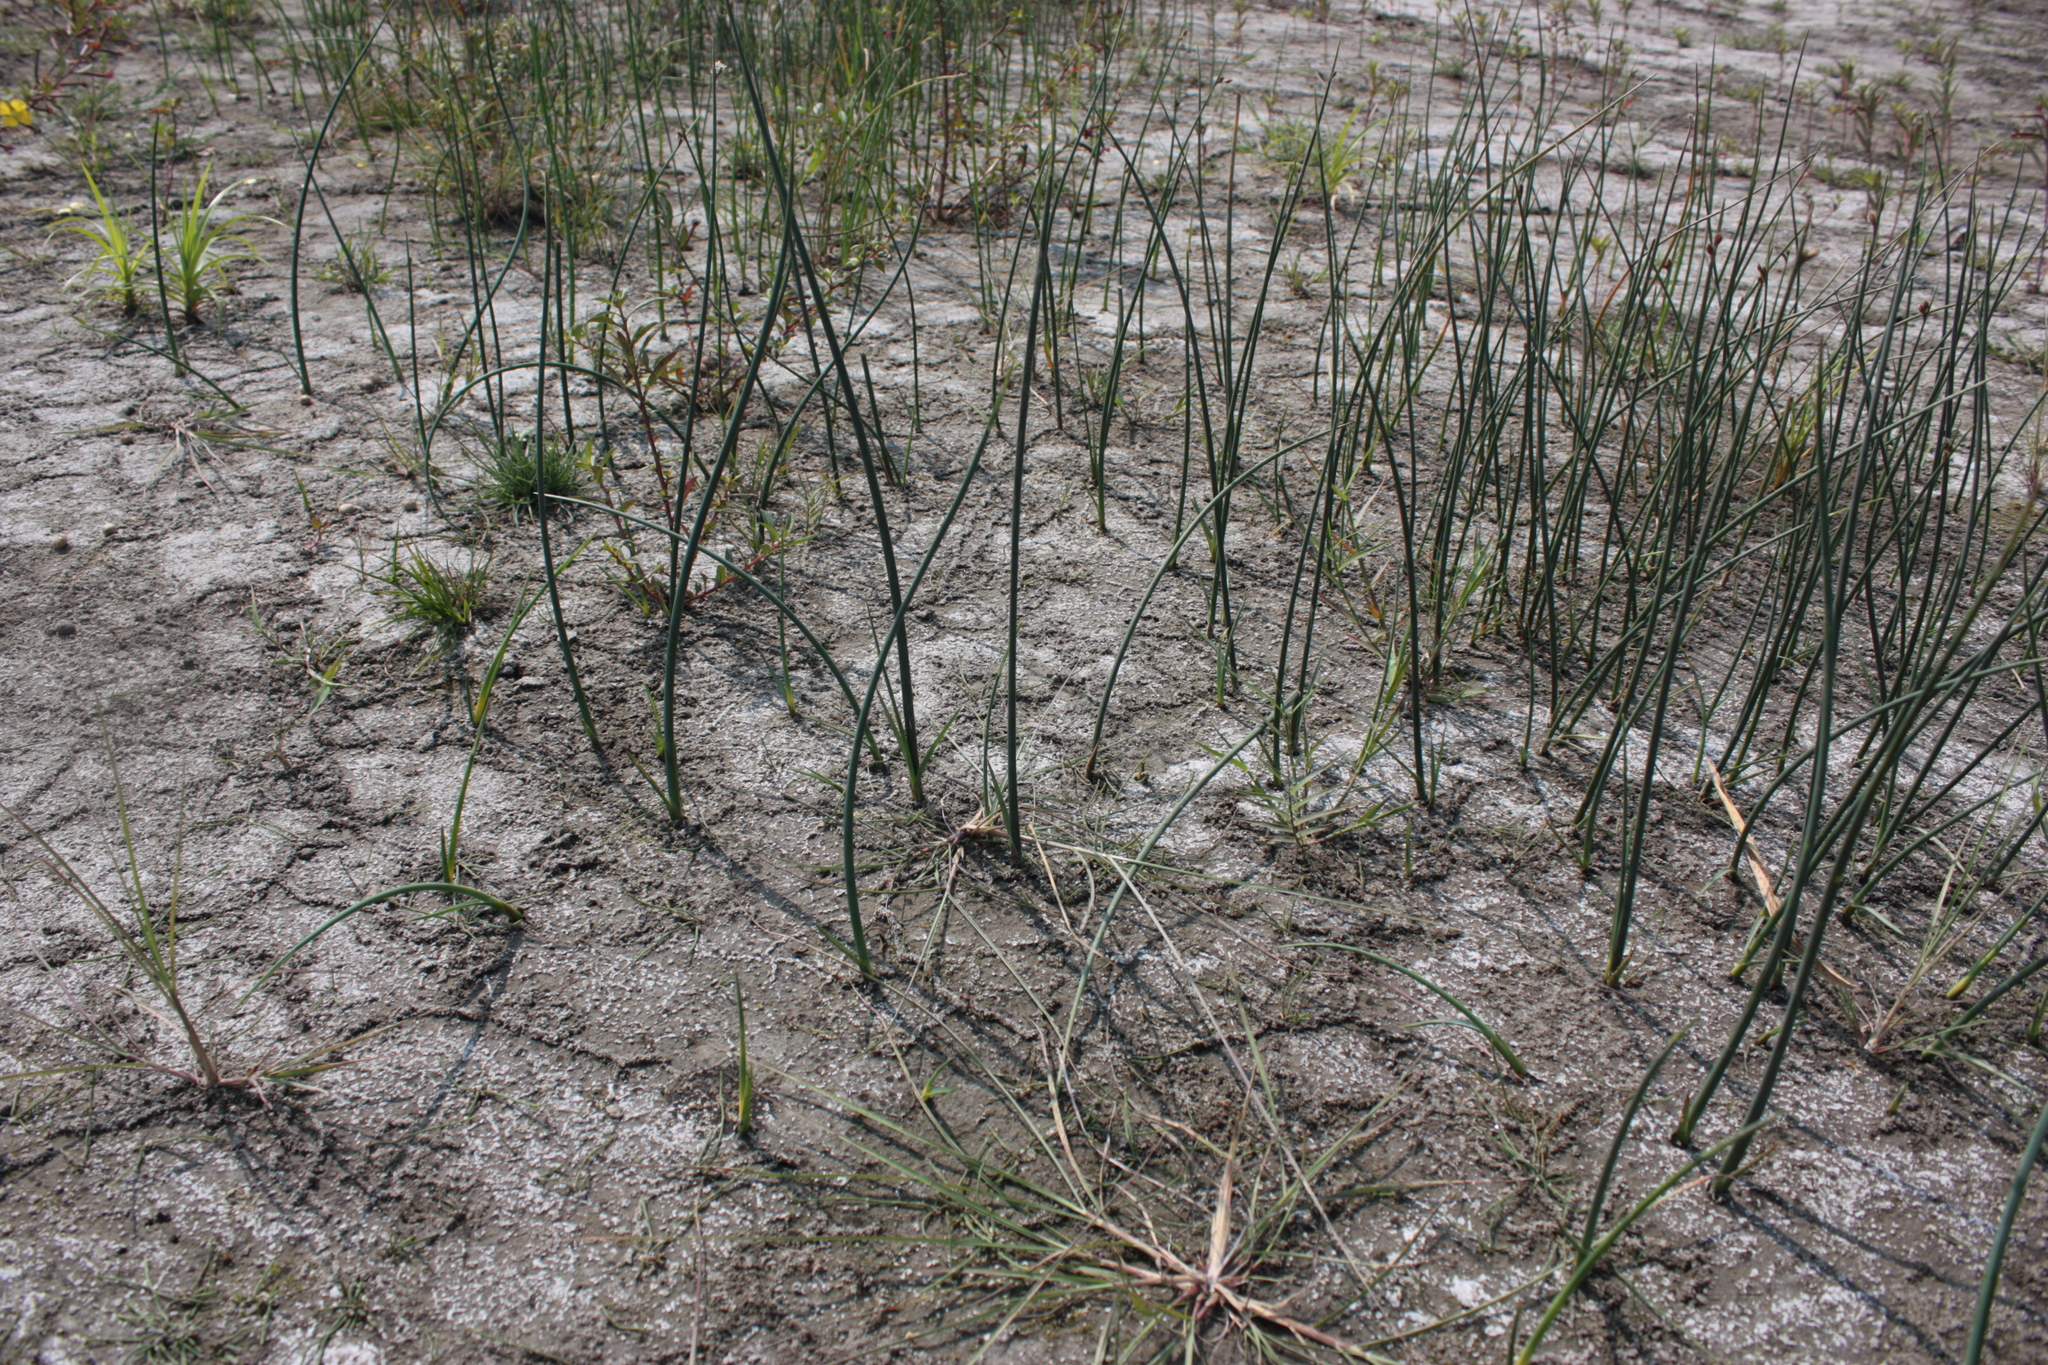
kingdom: Plantae
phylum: Tracheophyta
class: Polypodiopsida
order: Equisetales
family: Equisetaceae
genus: Equisetum
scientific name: Equisetum ramosissimum
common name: Branched horsetail
